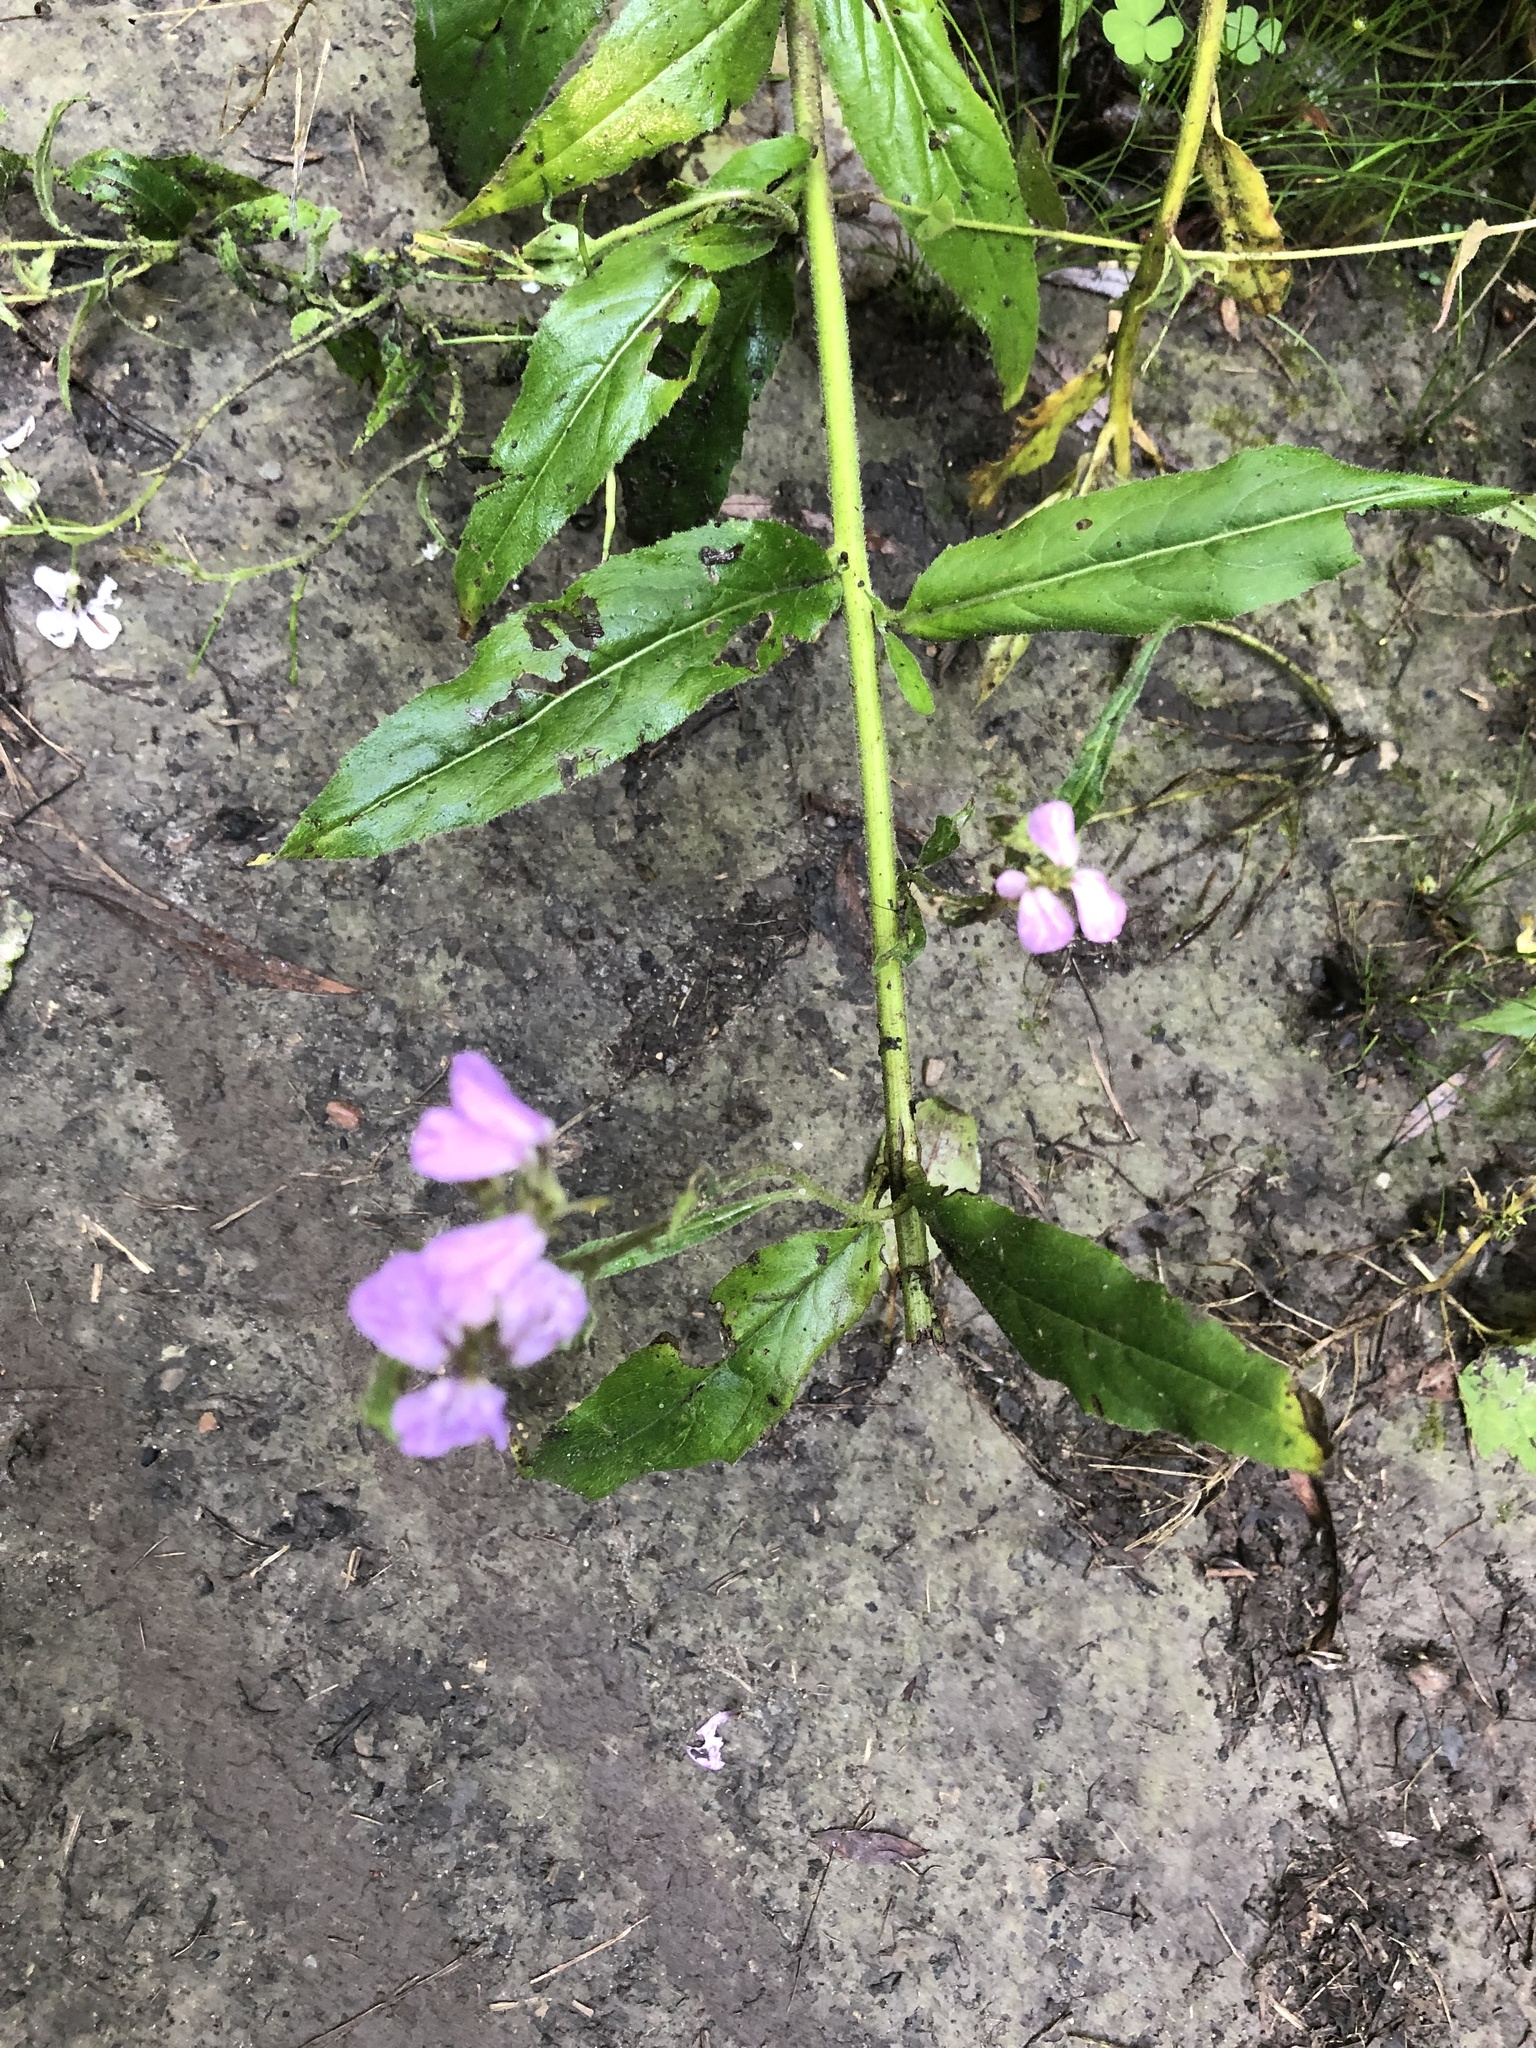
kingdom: Plantae
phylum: Tracheophyta
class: Magnoliopsida
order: Brassicales
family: Brassicaceae
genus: Hesperis
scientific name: Hesperis matronalis
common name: Dame's-violet
